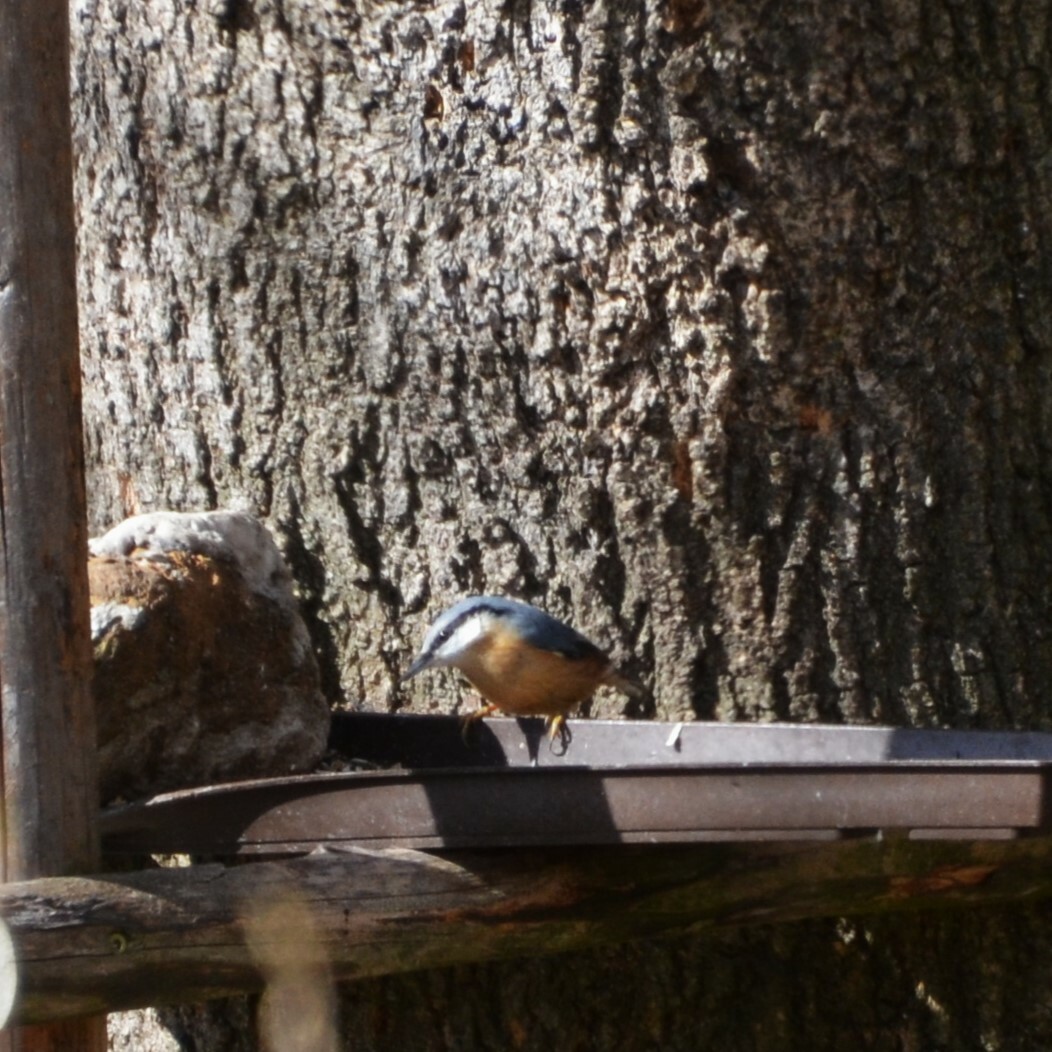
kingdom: Animalia
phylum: Chordata
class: Aves
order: Passeriformes
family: Sittidae
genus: Sitta
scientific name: Sitta europaea
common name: Eurasian nuthatch
